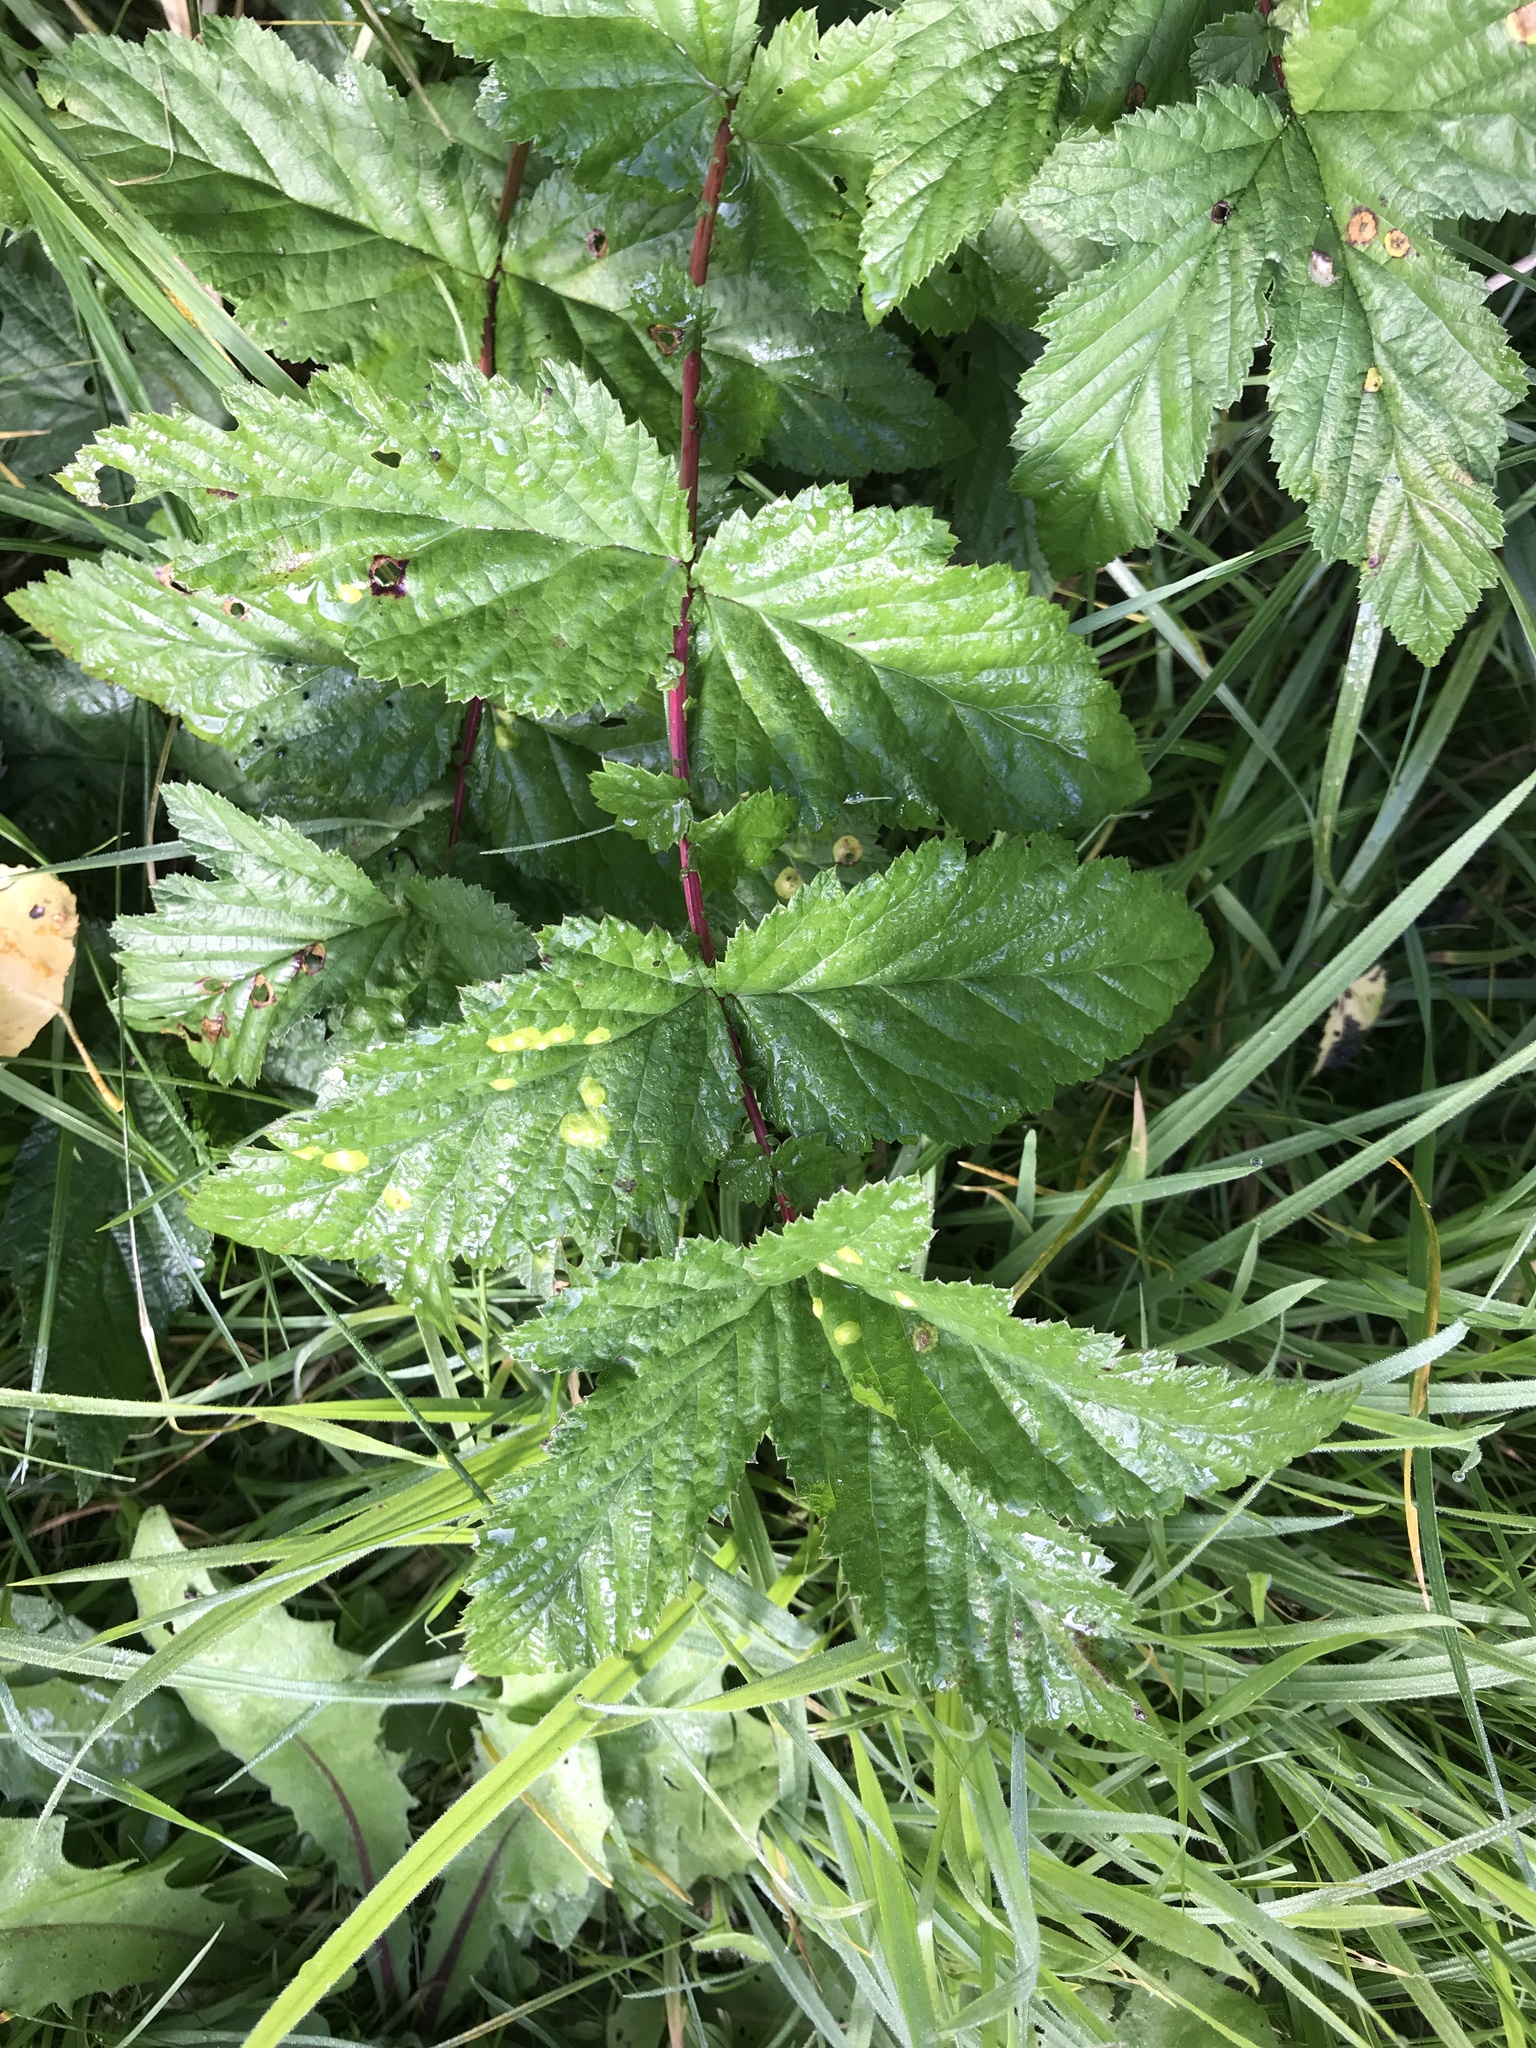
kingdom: Plantae
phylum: Tracheophyta
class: Magnoliopsida
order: Rosales
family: Rosaceae
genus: Filipendula
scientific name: Filipendula ulmaria
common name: Meadowsweet
